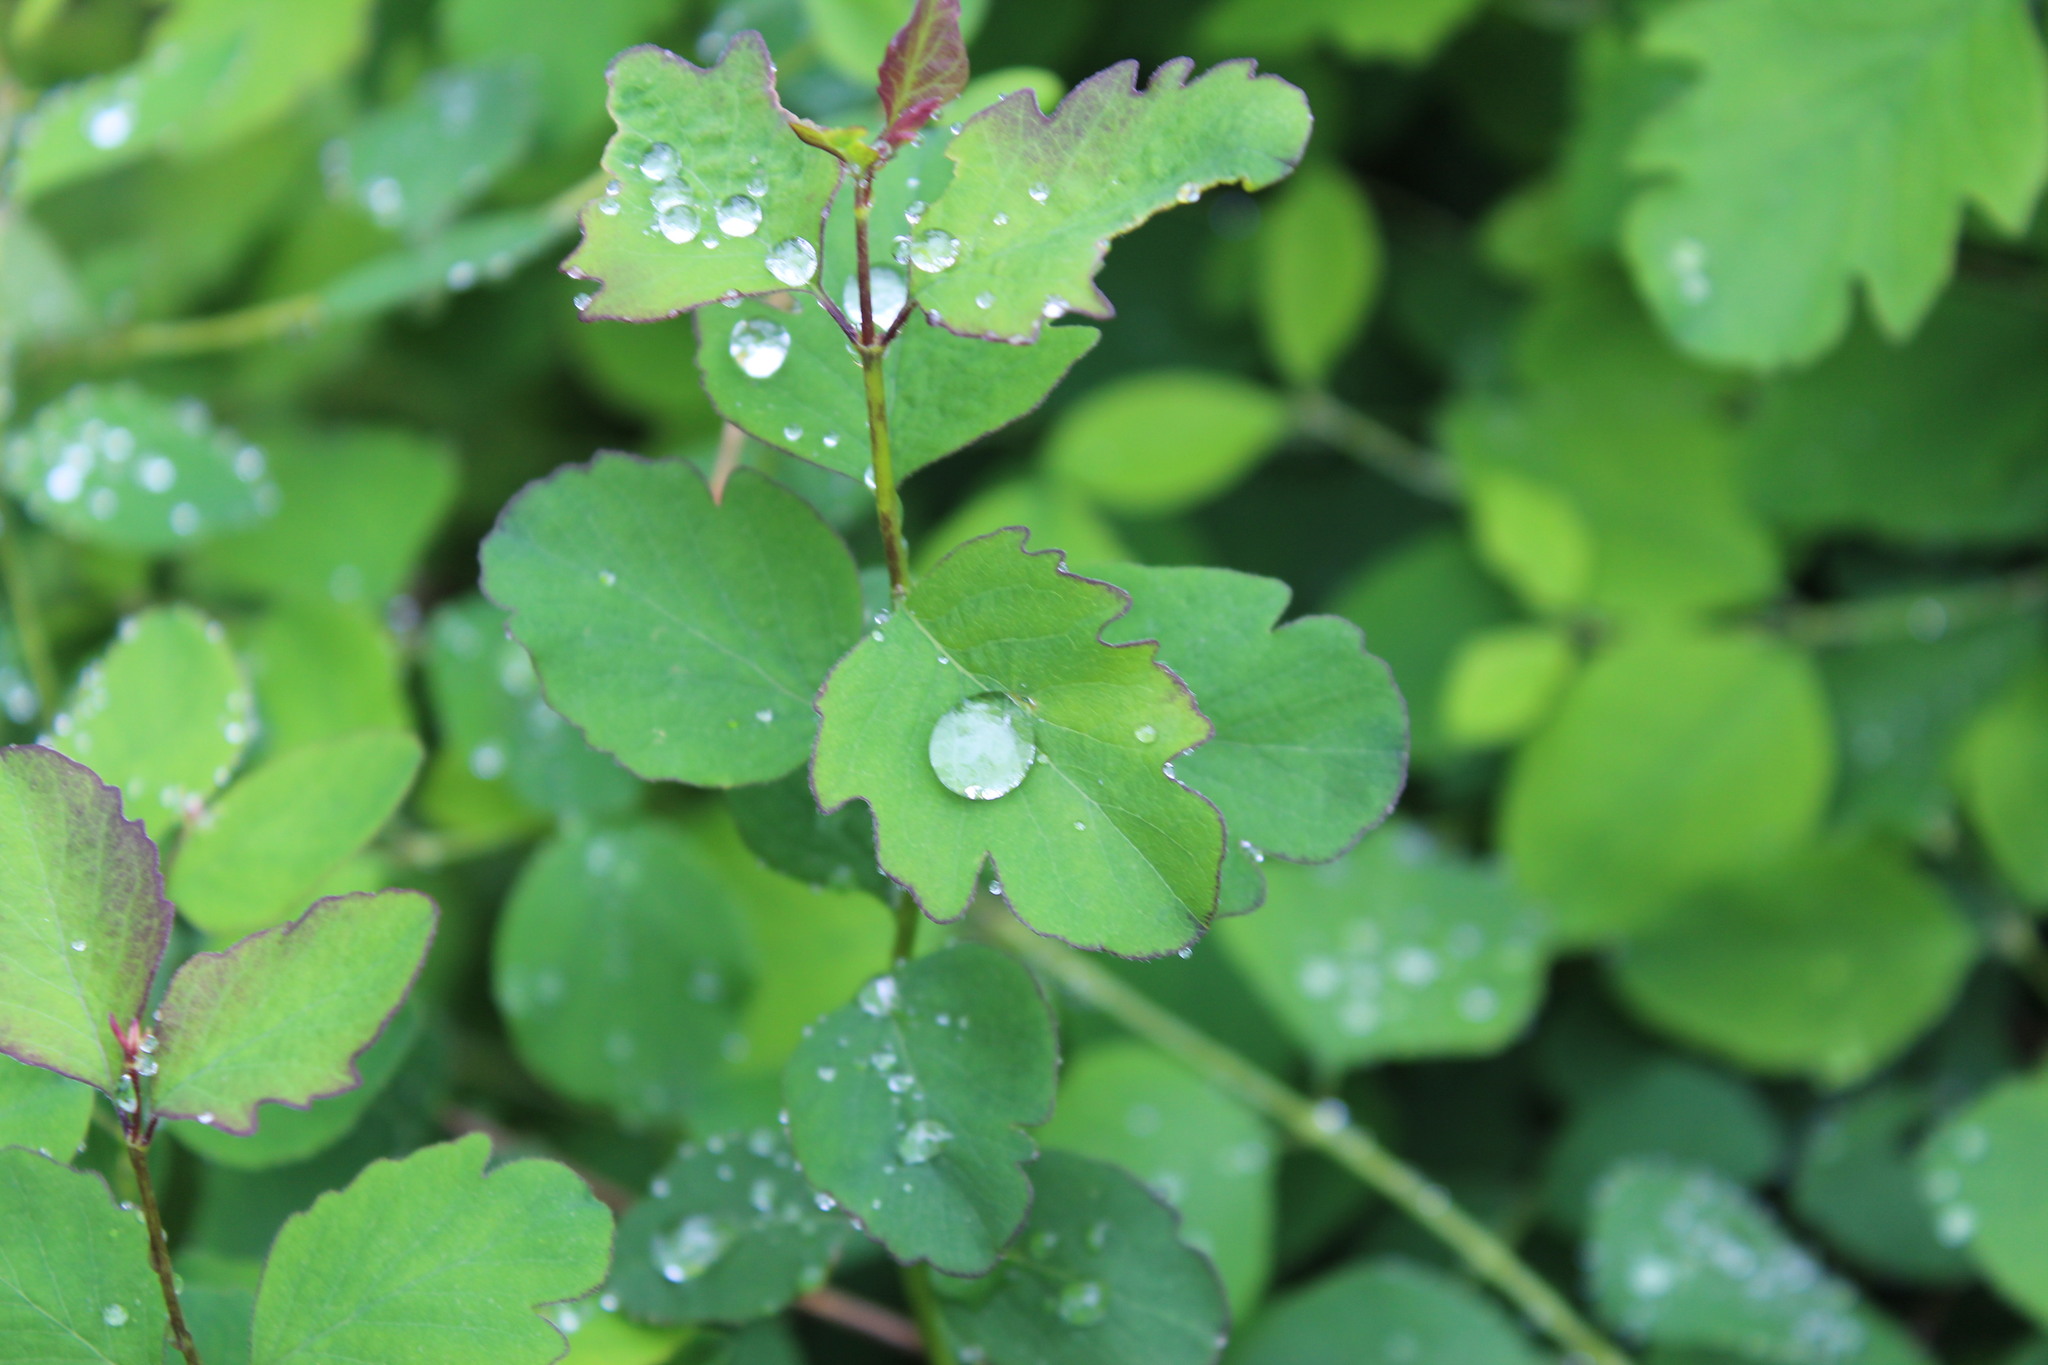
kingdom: Plantae
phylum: Tracheophyta
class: Magnoliopsida
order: Dipsacales
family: Caprifoliaceae
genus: Symphoricarpos
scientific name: Symphoricarpos albus
